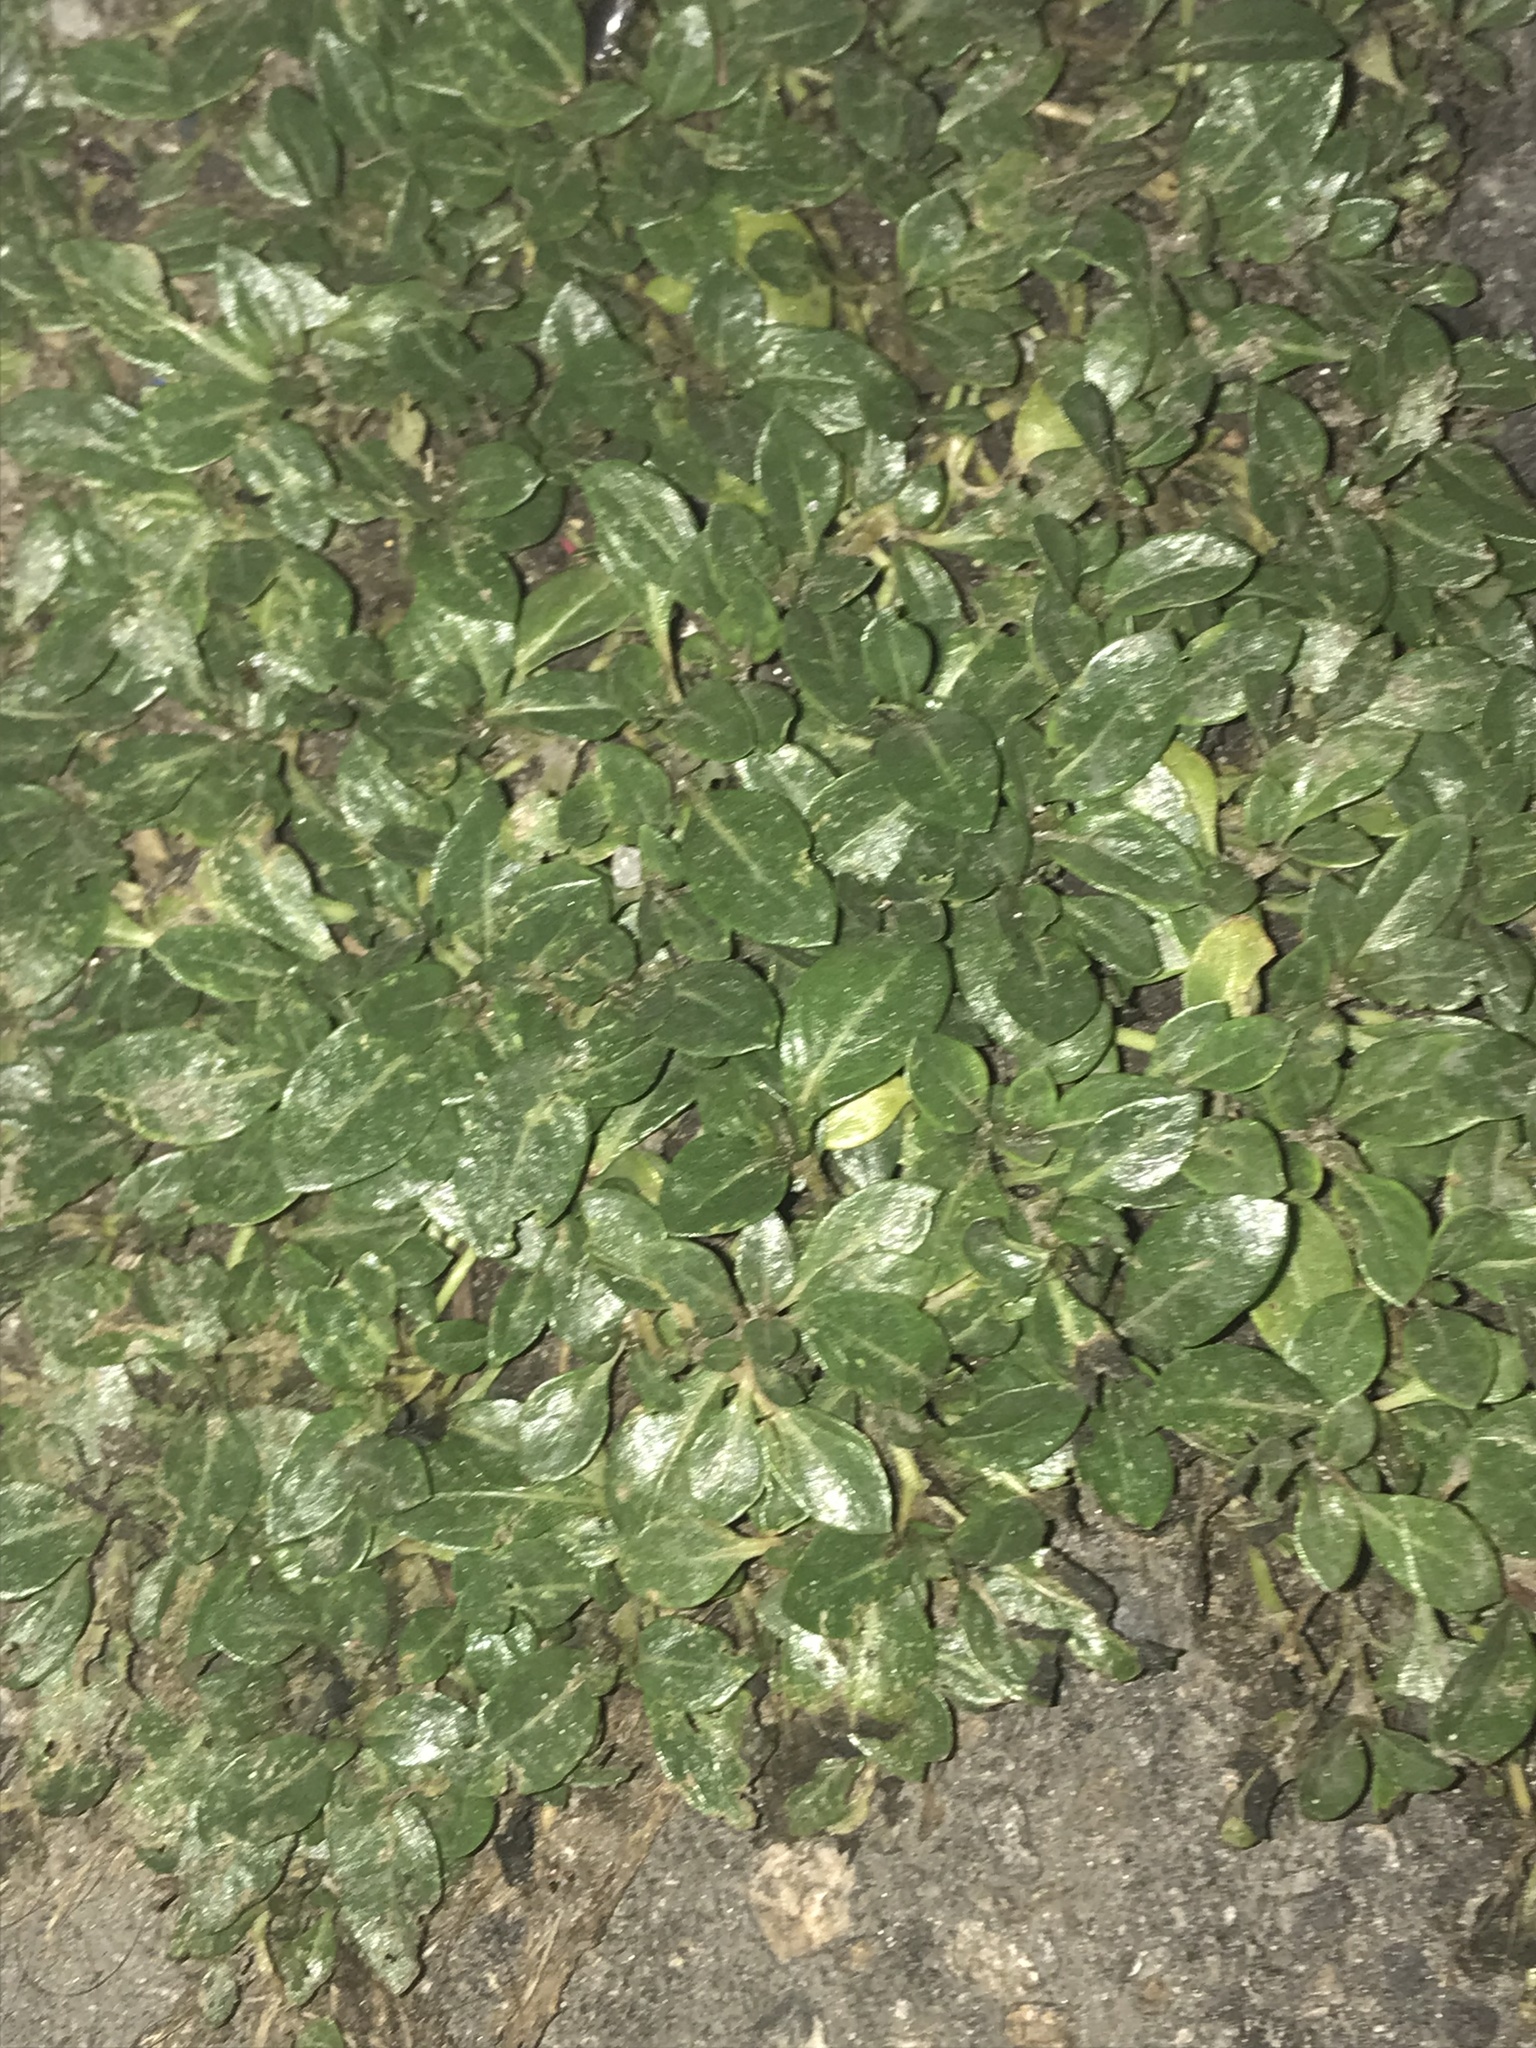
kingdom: Plantae
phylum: Tracheophyta
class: Magnoliopsida
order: Myrtales
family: Onagraceae
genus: Ludwigia
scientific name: Ludwigia peploides
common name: Floating primrose-willow
